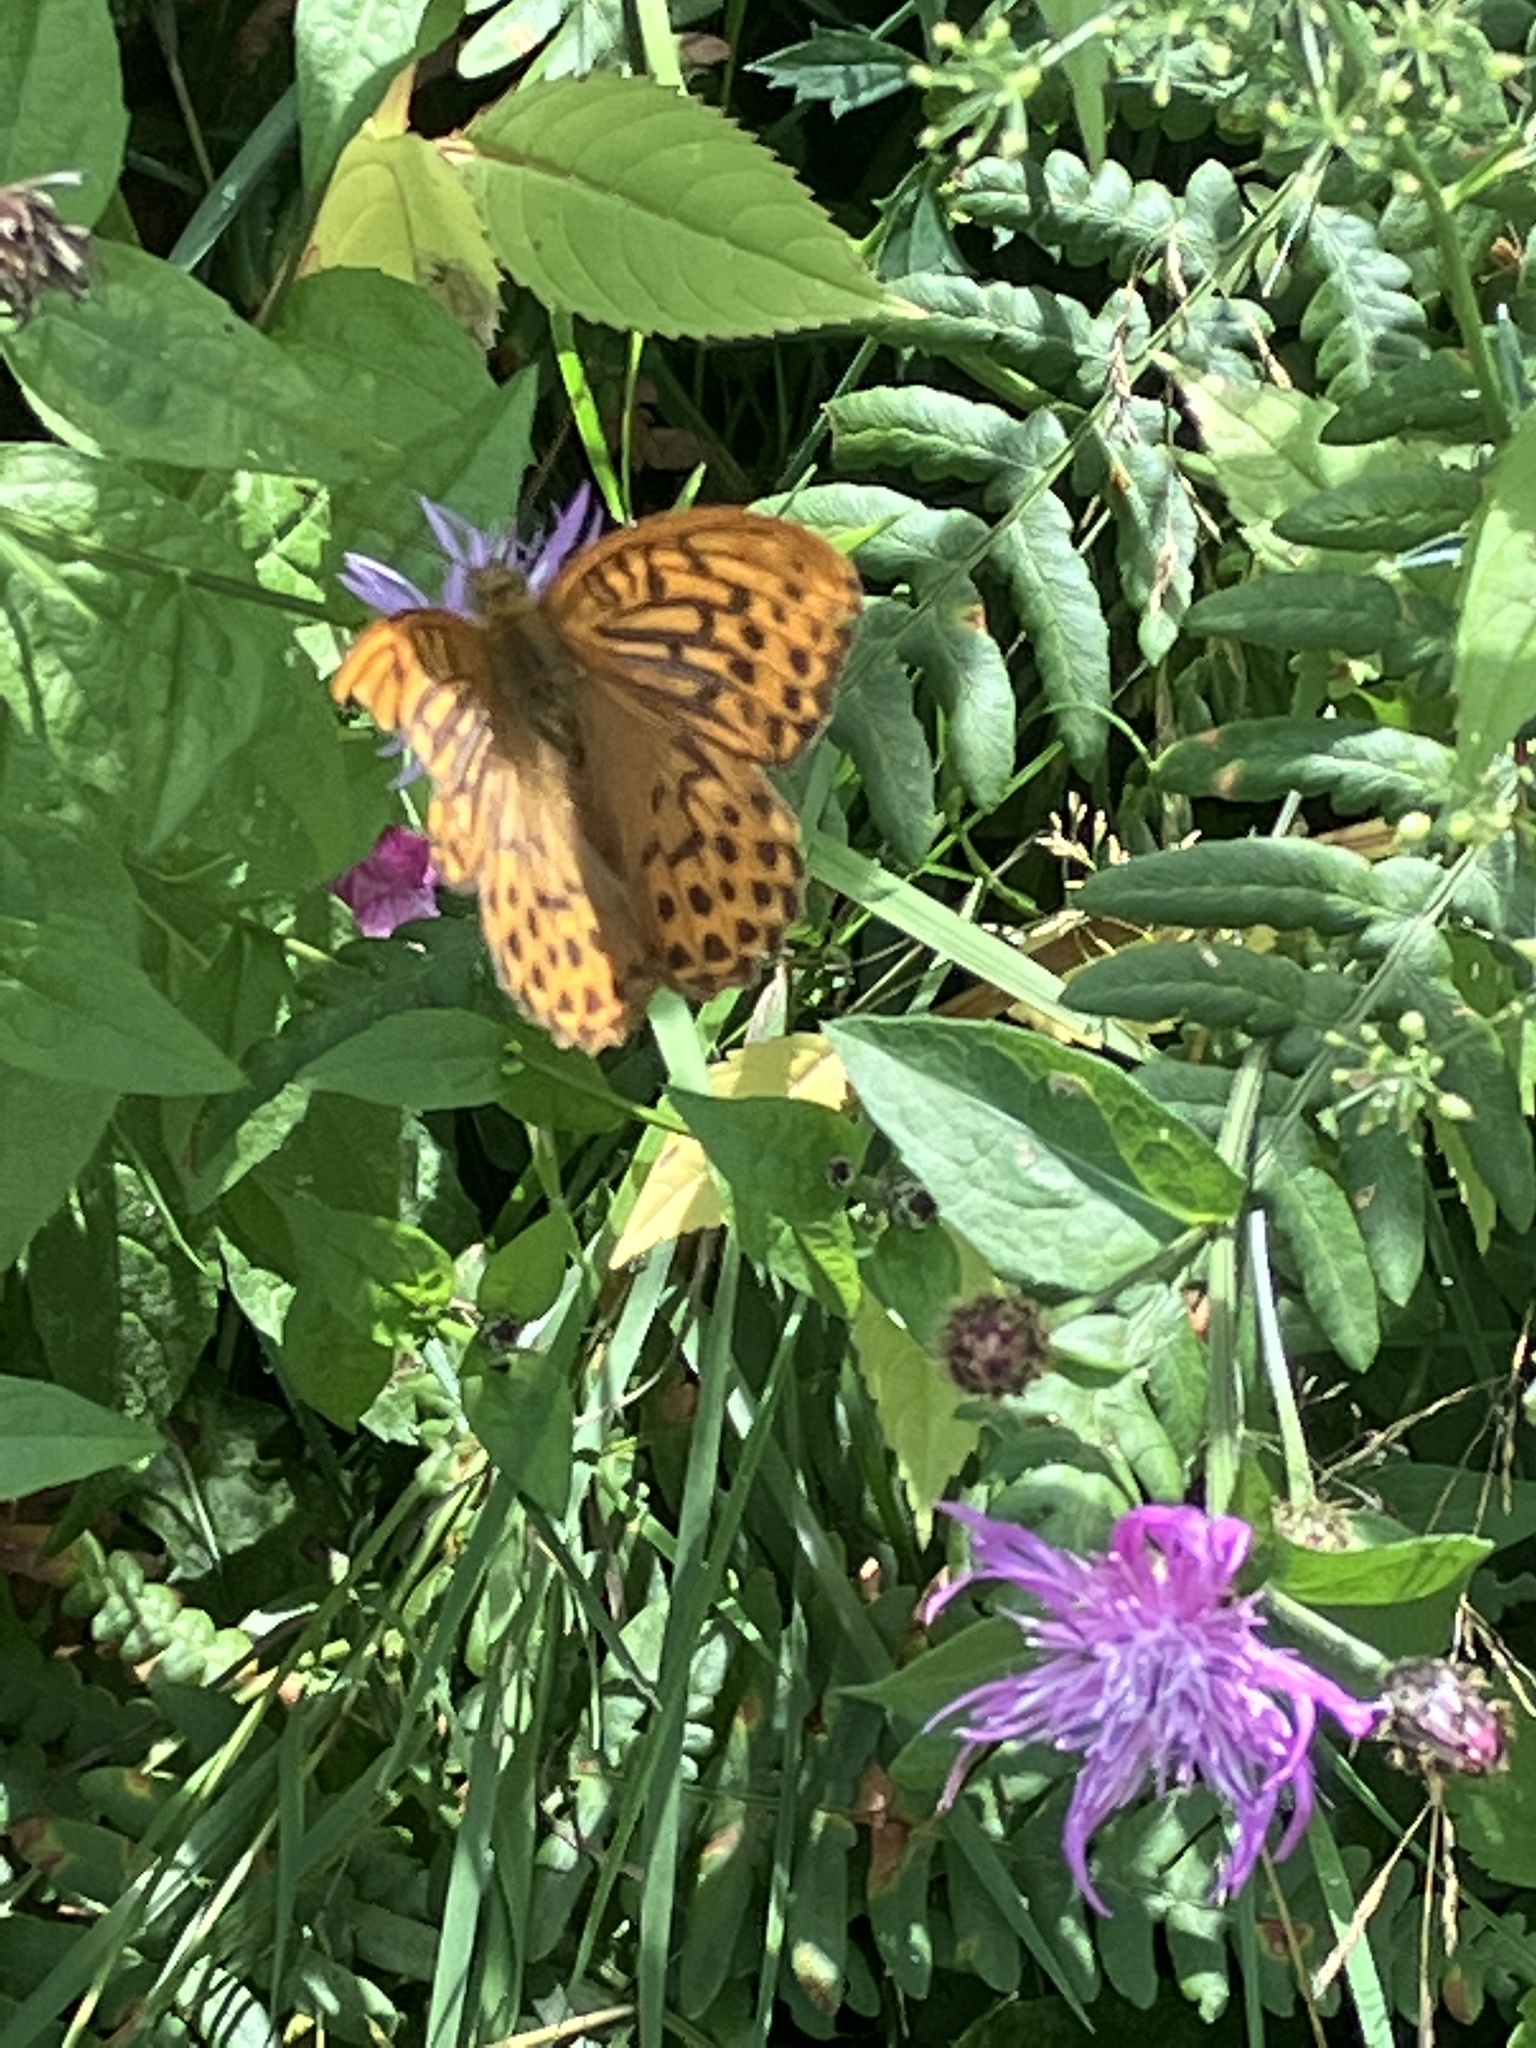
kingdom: Animalia
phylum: Arthropoda
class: Insecta
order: Lepidoptera
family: Nymphalidae
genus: Argynnis
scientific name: Argynnis paphia
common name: Silver-washed fritillary
